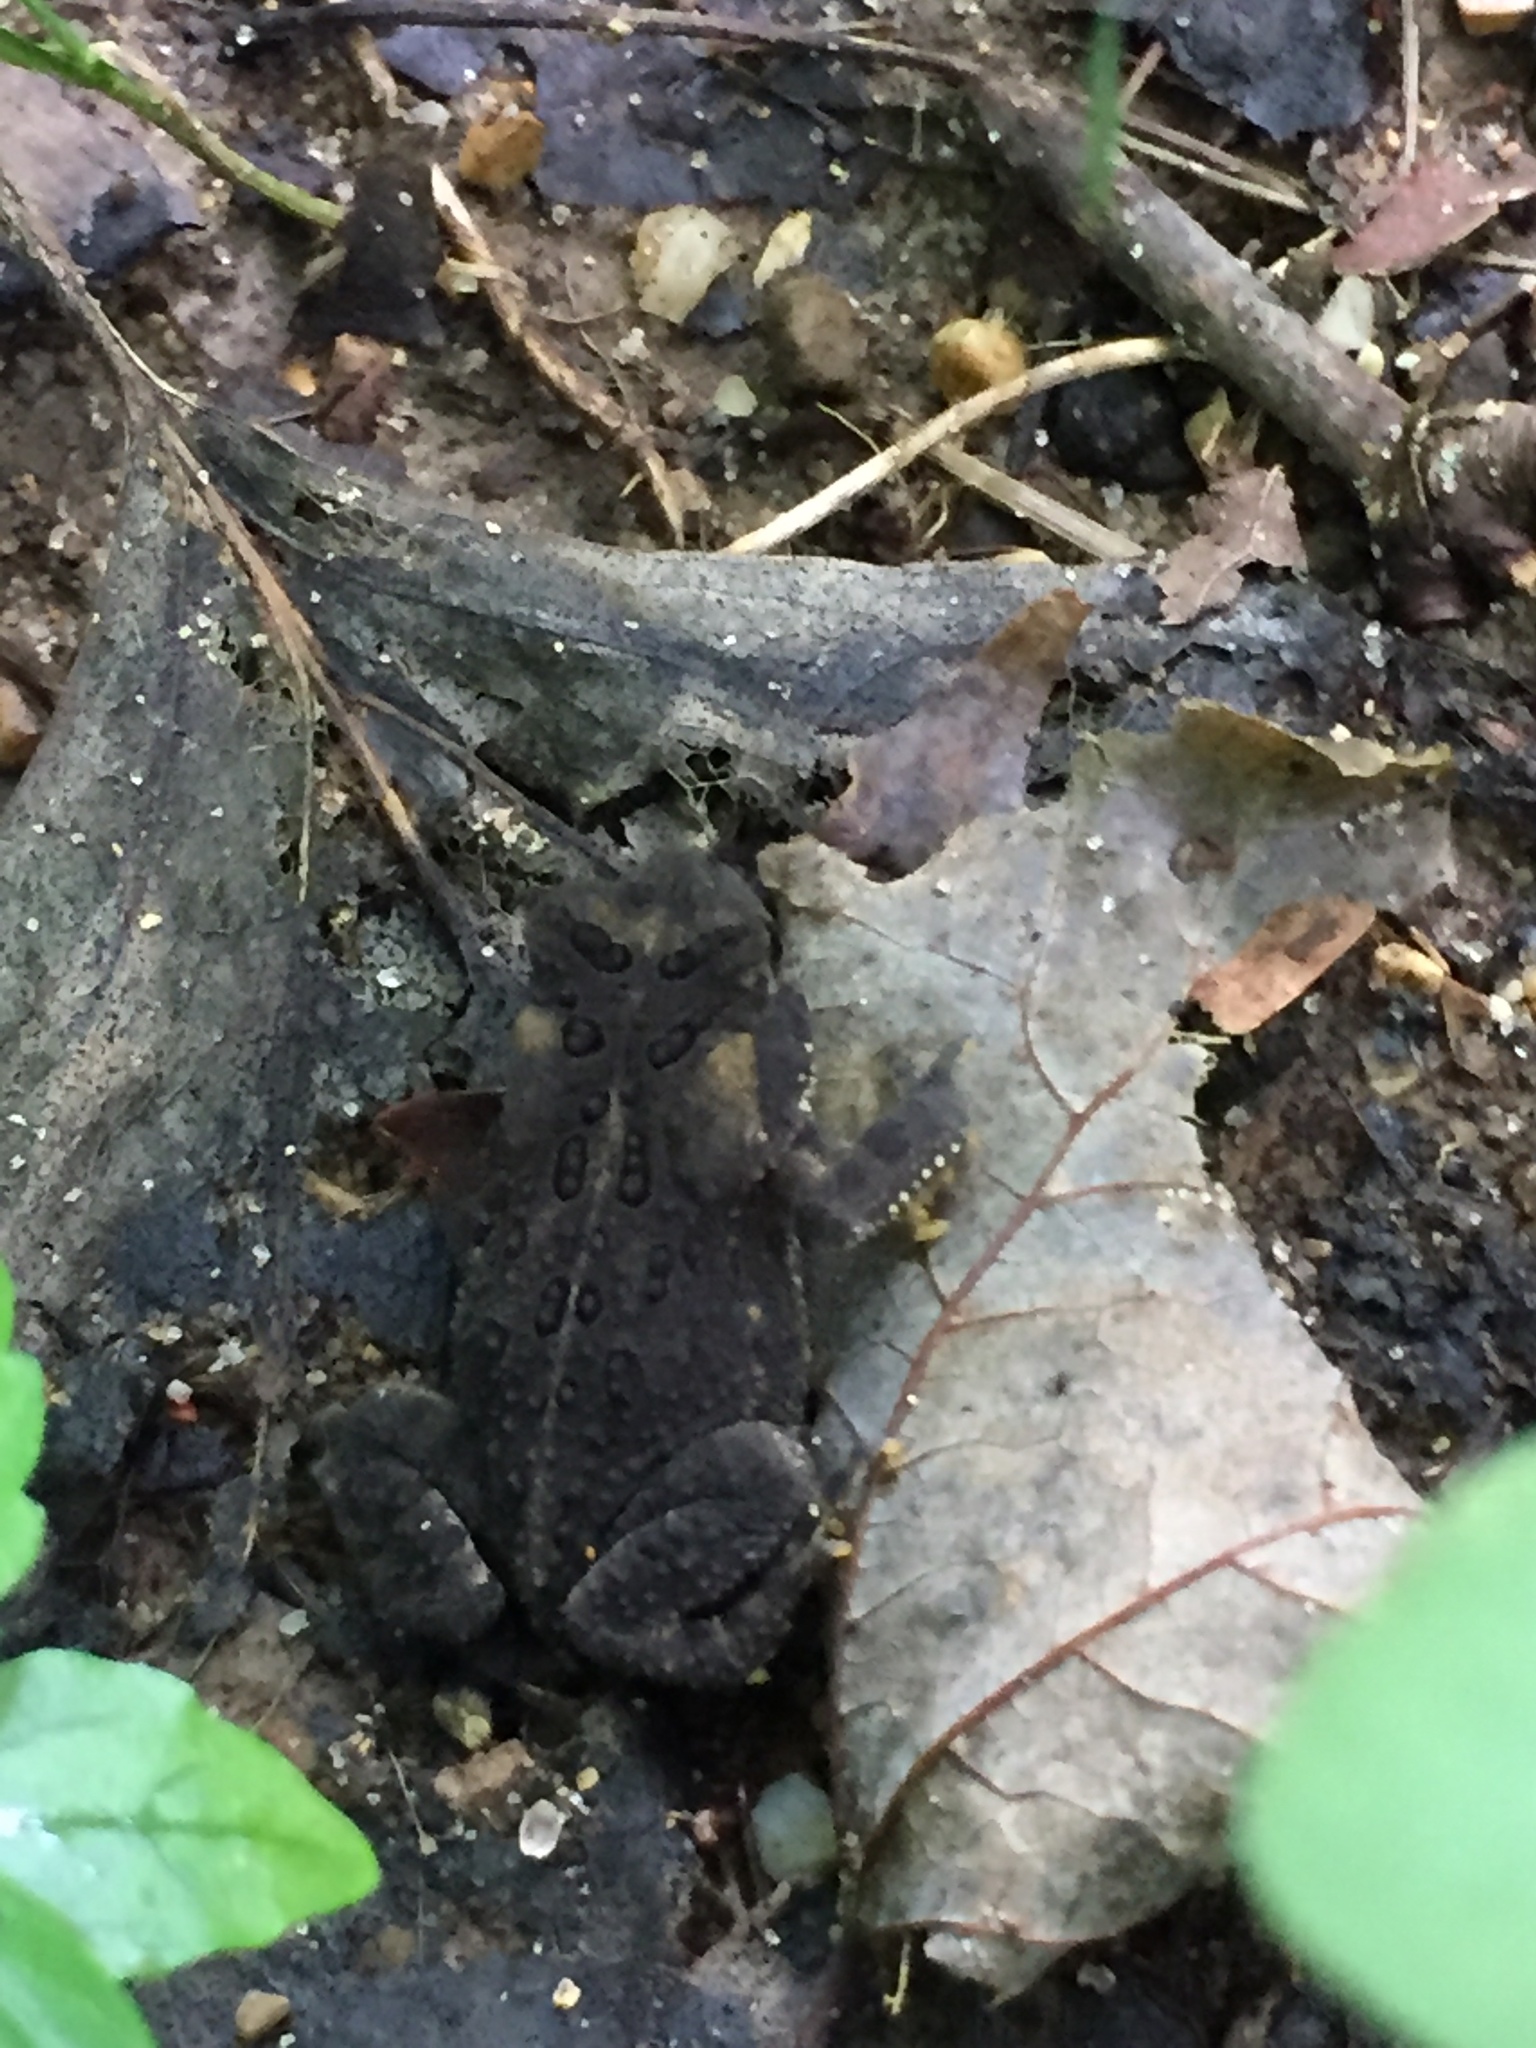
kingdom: Animalia
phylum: Chordata
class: Amphibia
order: Anura
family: Bufonidae
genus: Anaxyrus
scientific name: Anaxyrus americanus
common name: American toad
